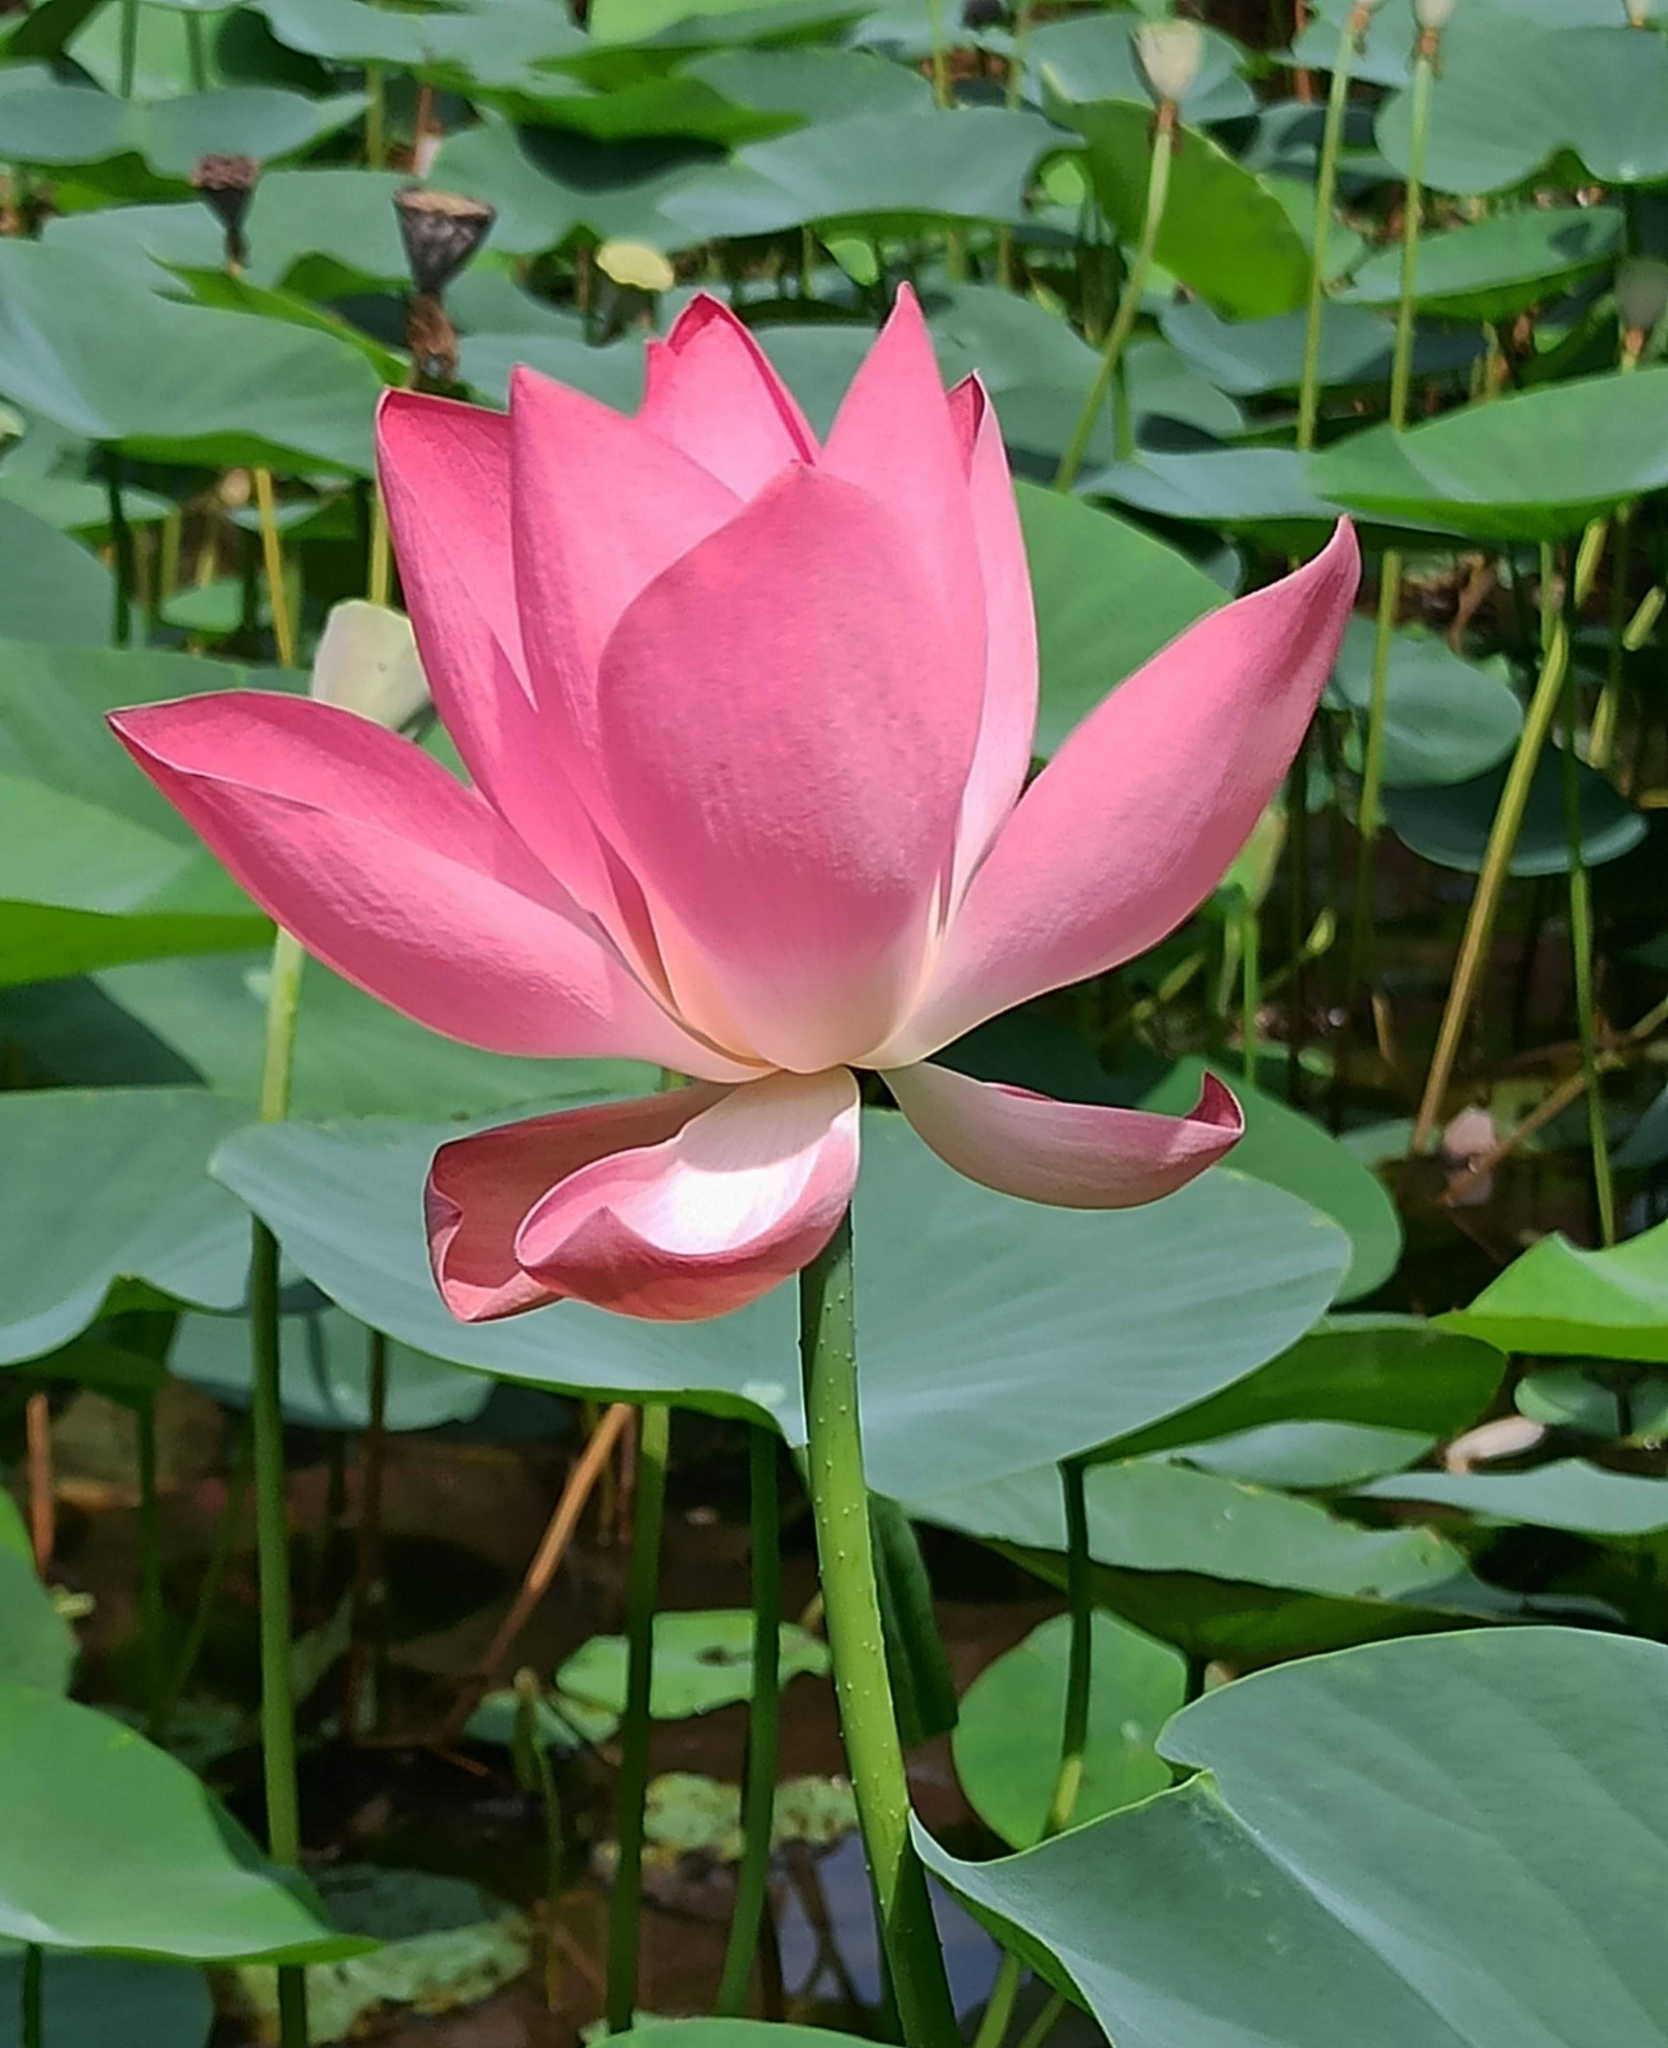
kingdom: Plantae
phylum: Tracheophyta
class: Magnoliopsida
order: Proteales
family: Nelumbonaceae
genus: Nelumbo
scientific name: Nelumbo nucifera
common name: Sacred lotus
